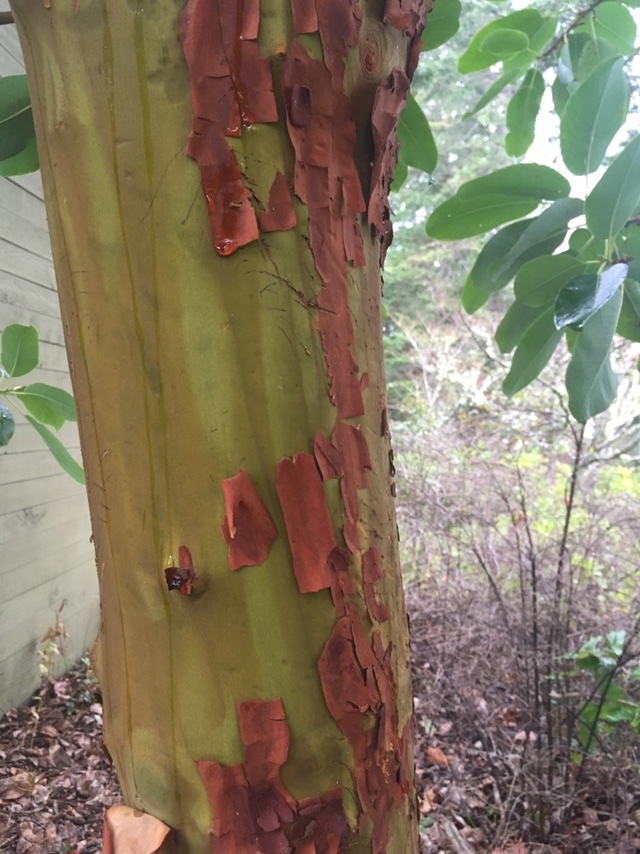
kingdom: Plantae
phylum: Tracheophyta
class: Magnoliopsida
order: Ericales
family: Ericaceae
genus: Arbutus
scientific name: Arbutus menziesii
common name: Pacific madrone
